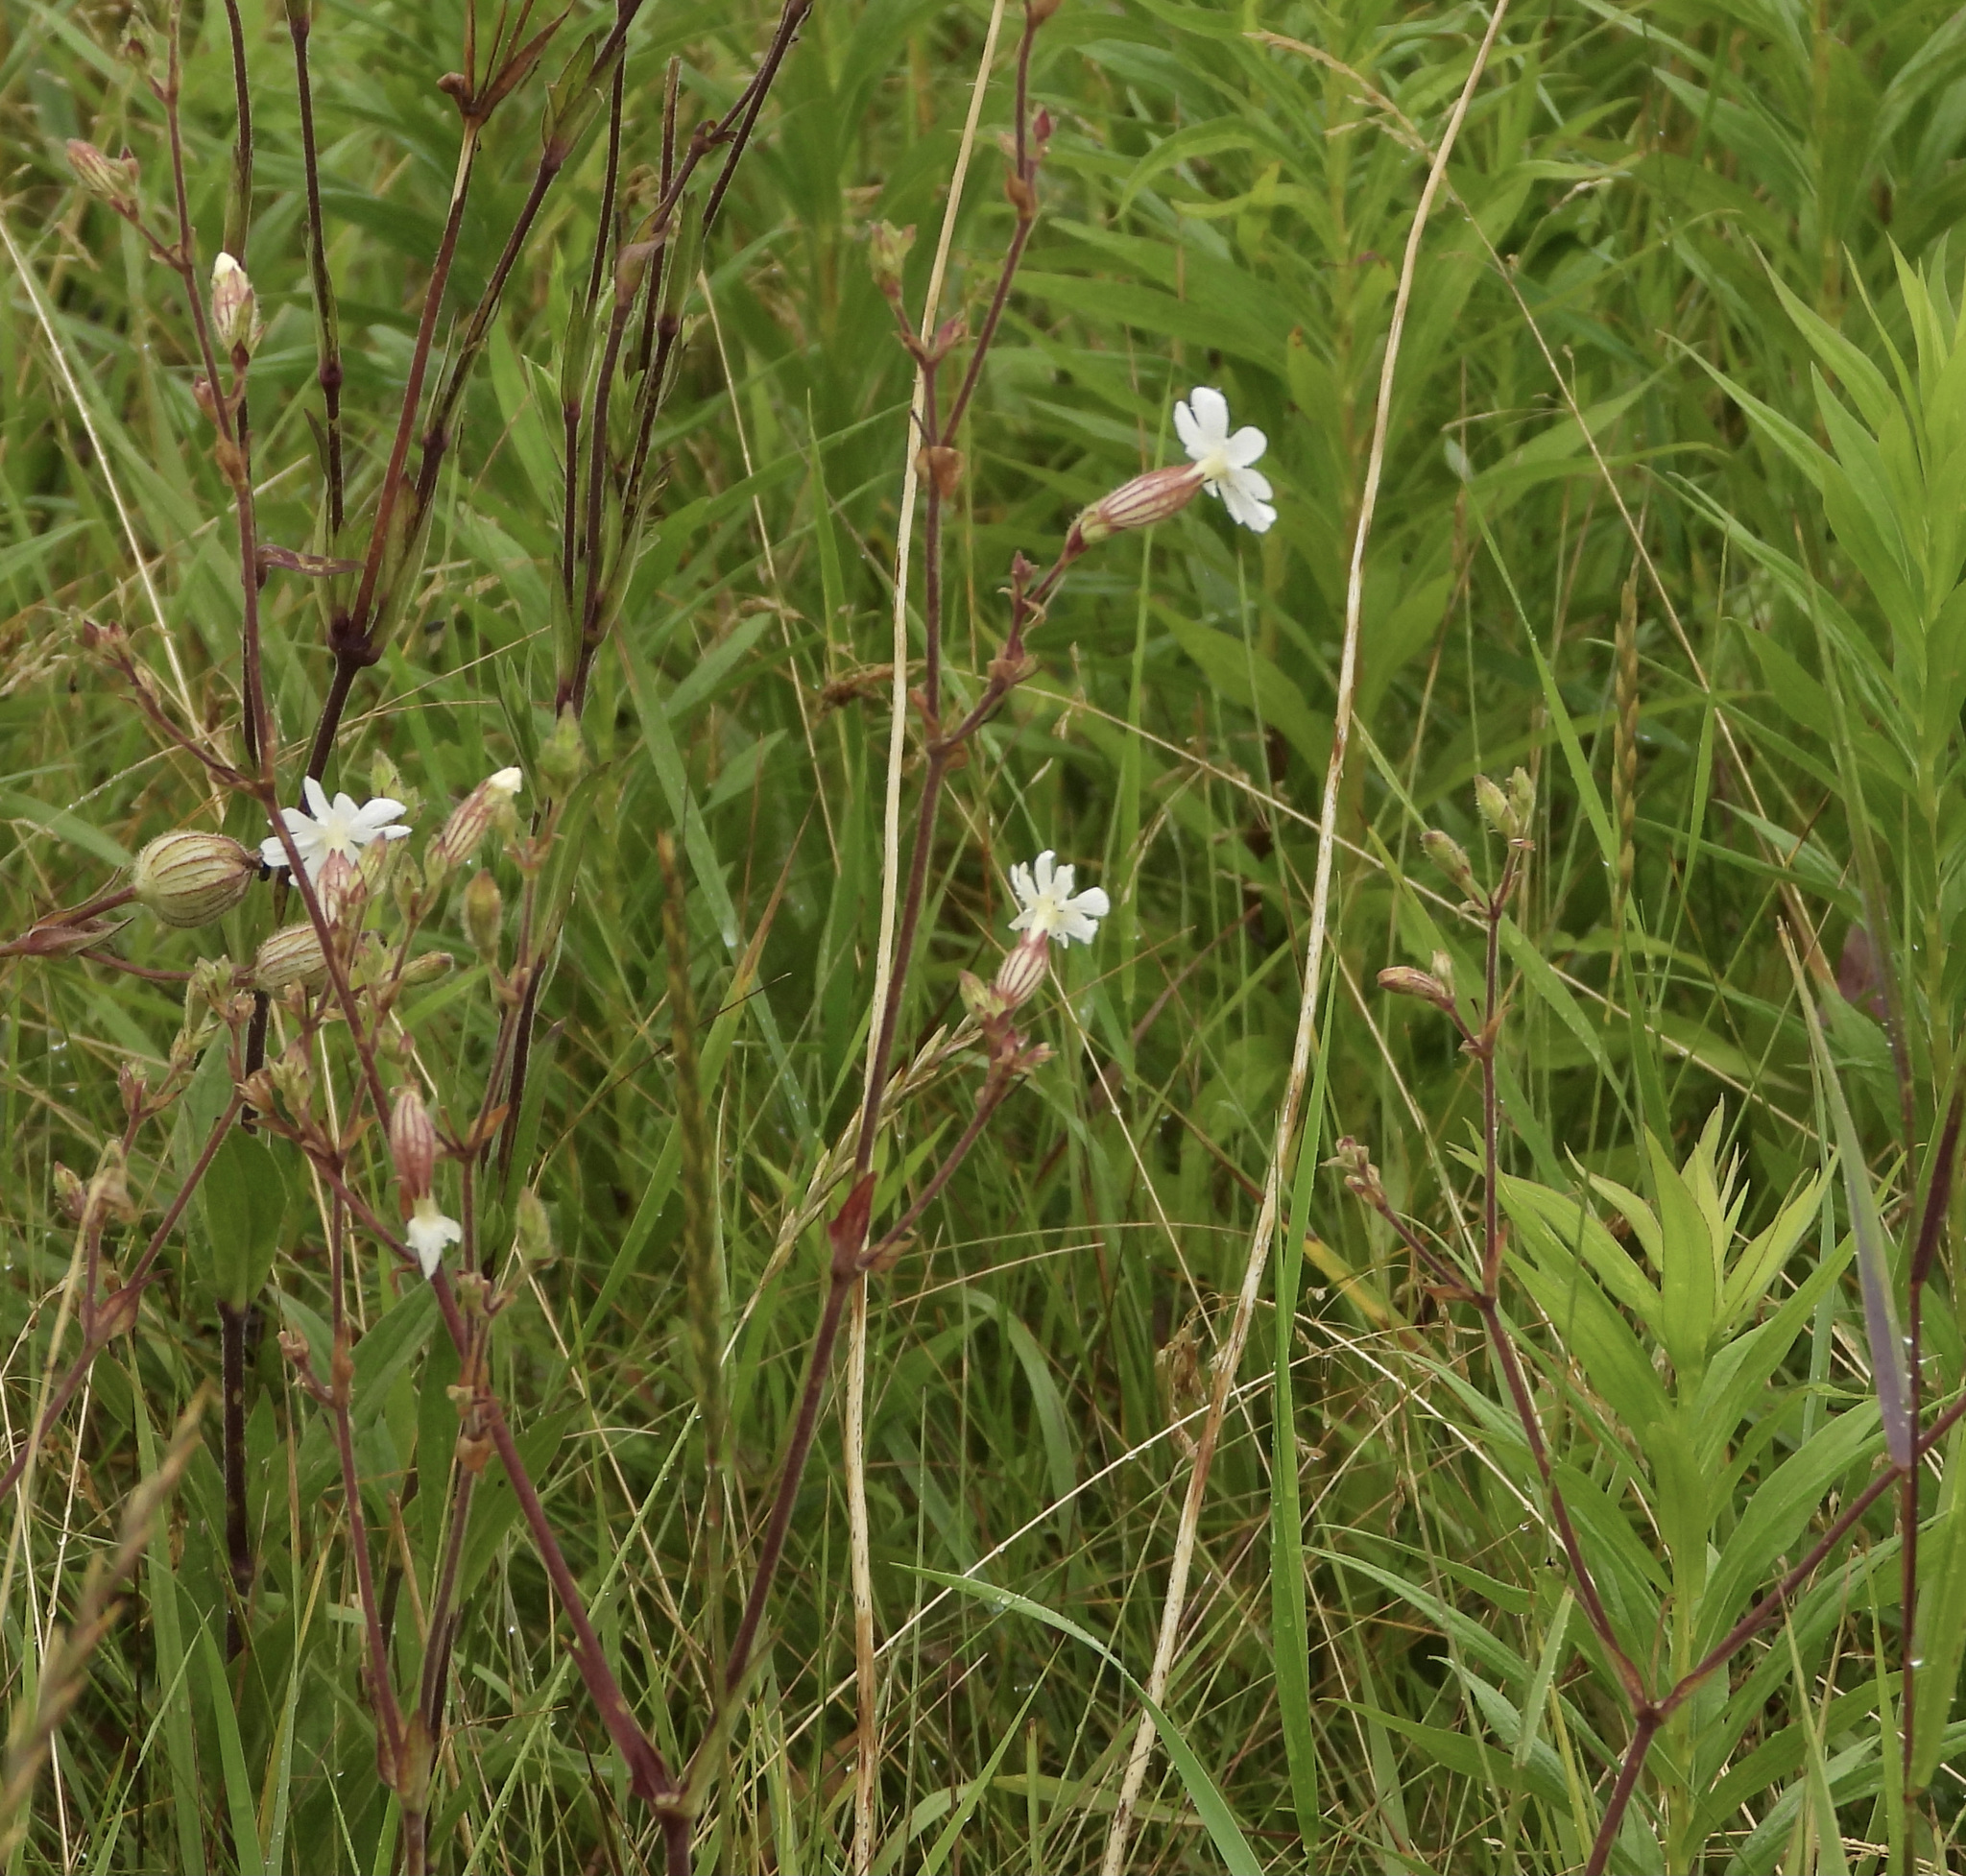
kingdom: Plantae
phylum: Tracheophyta
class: Magnoliopsida
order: Caryophyllales
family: Caryophyllaceae
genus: Silene
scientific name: Silene latifolia
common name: White campion
